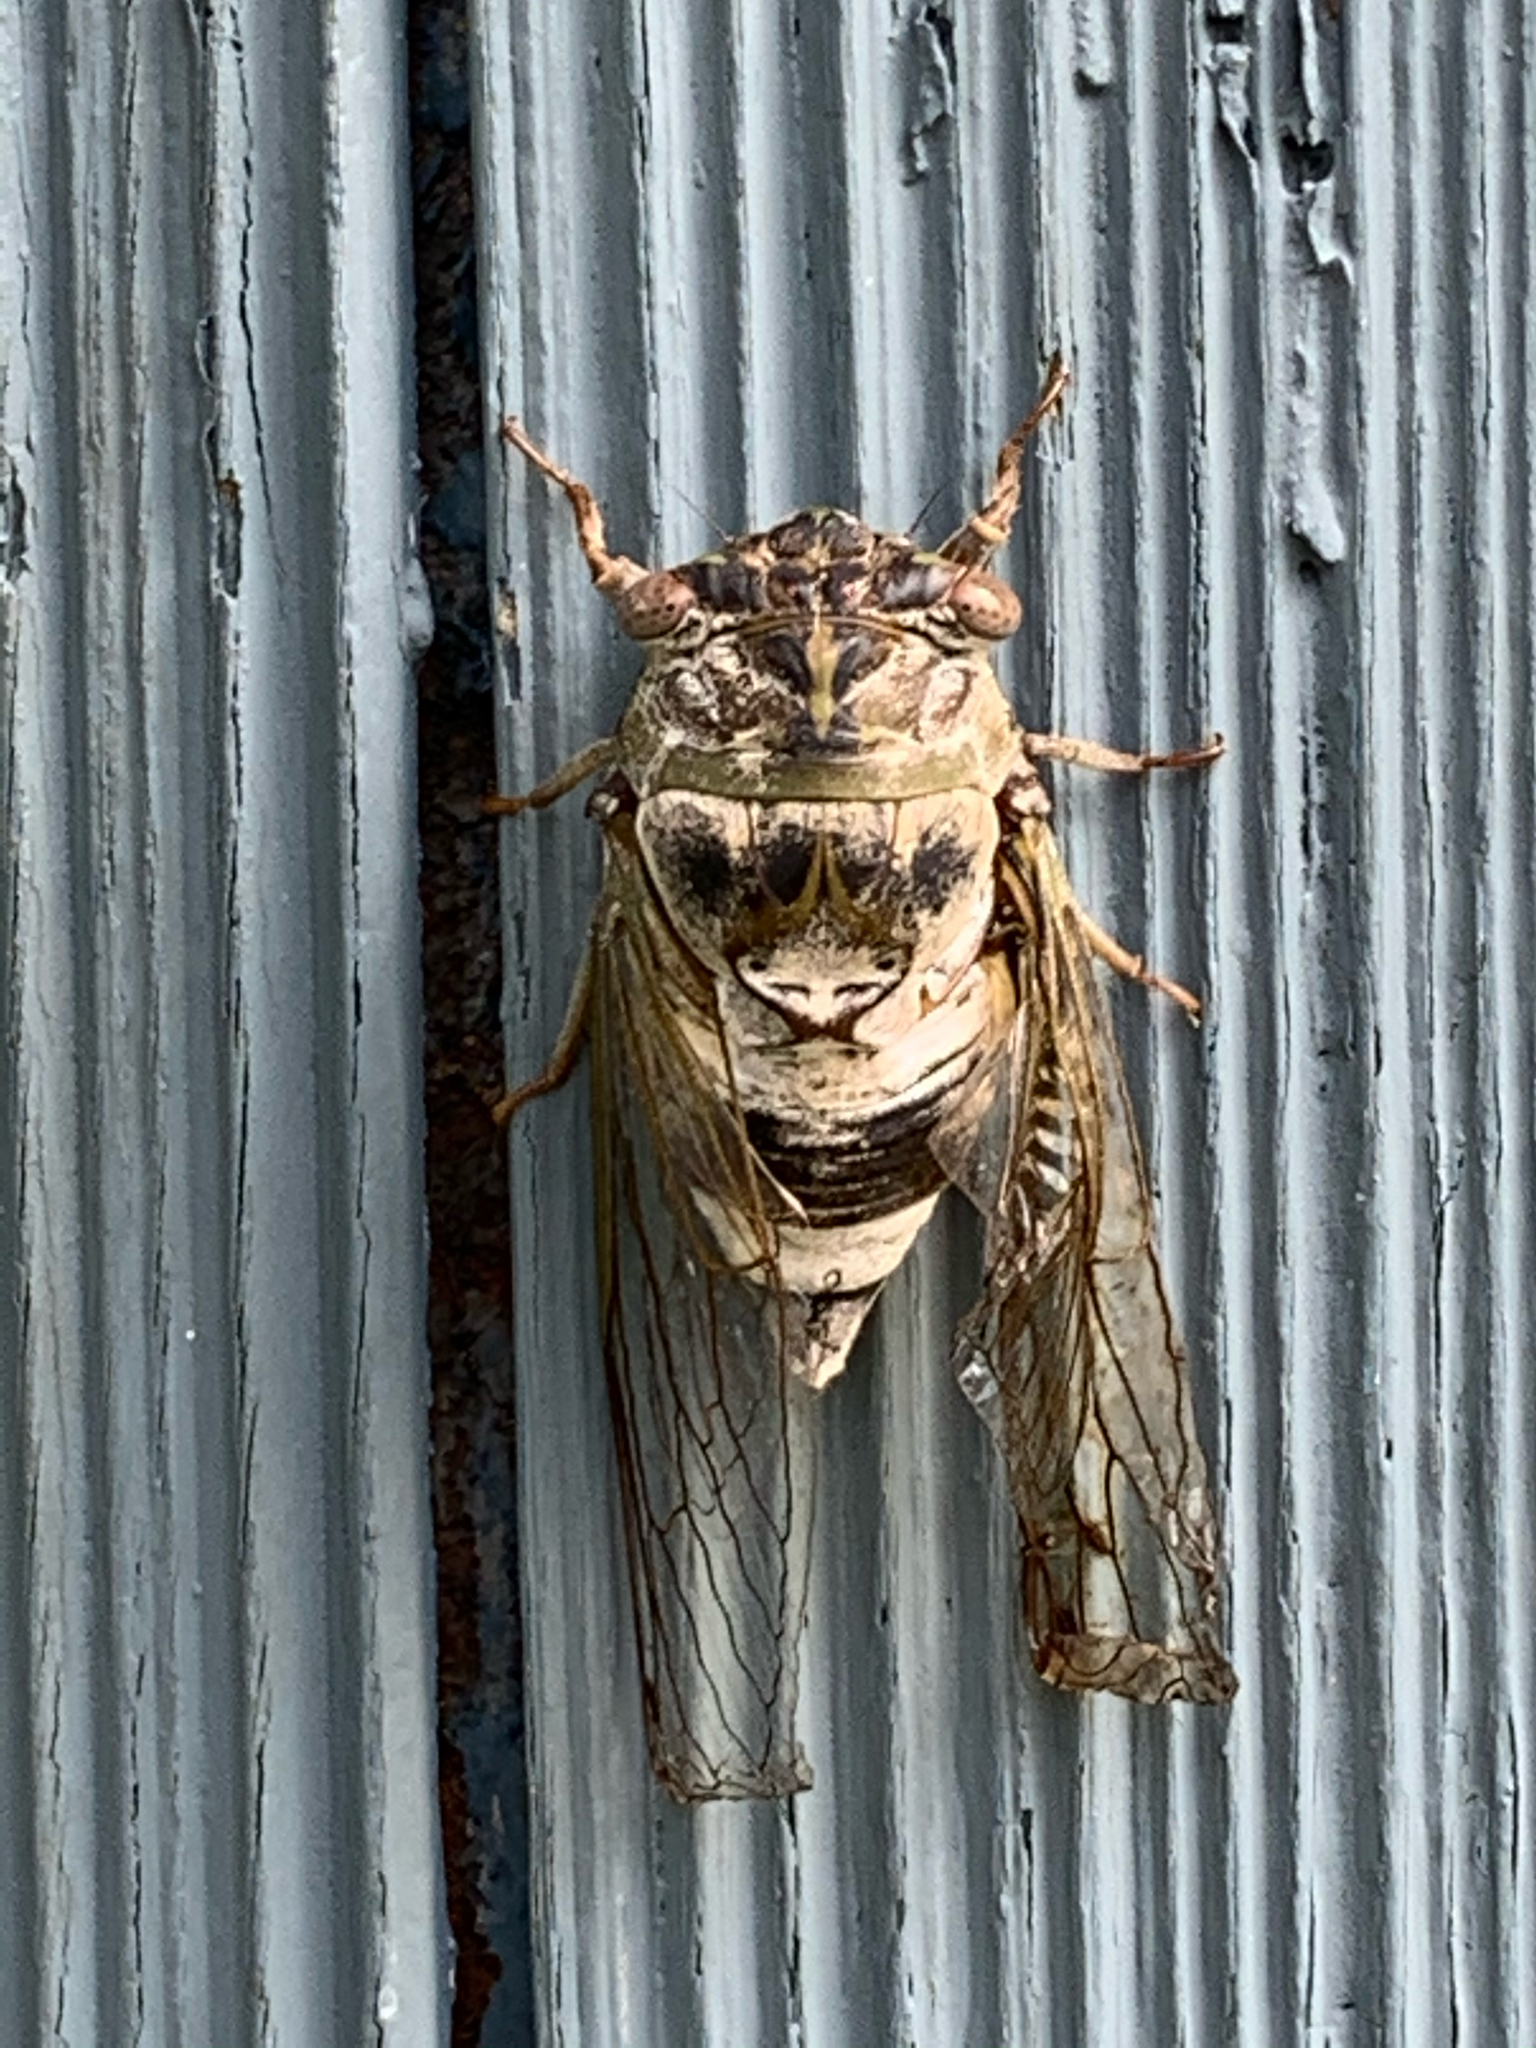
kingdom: Animalia
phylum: Arthropoda
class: Insecta
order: Hemiptera
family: Cicadidae
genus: Diceroprocta
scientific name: Diceroprocta grossa
